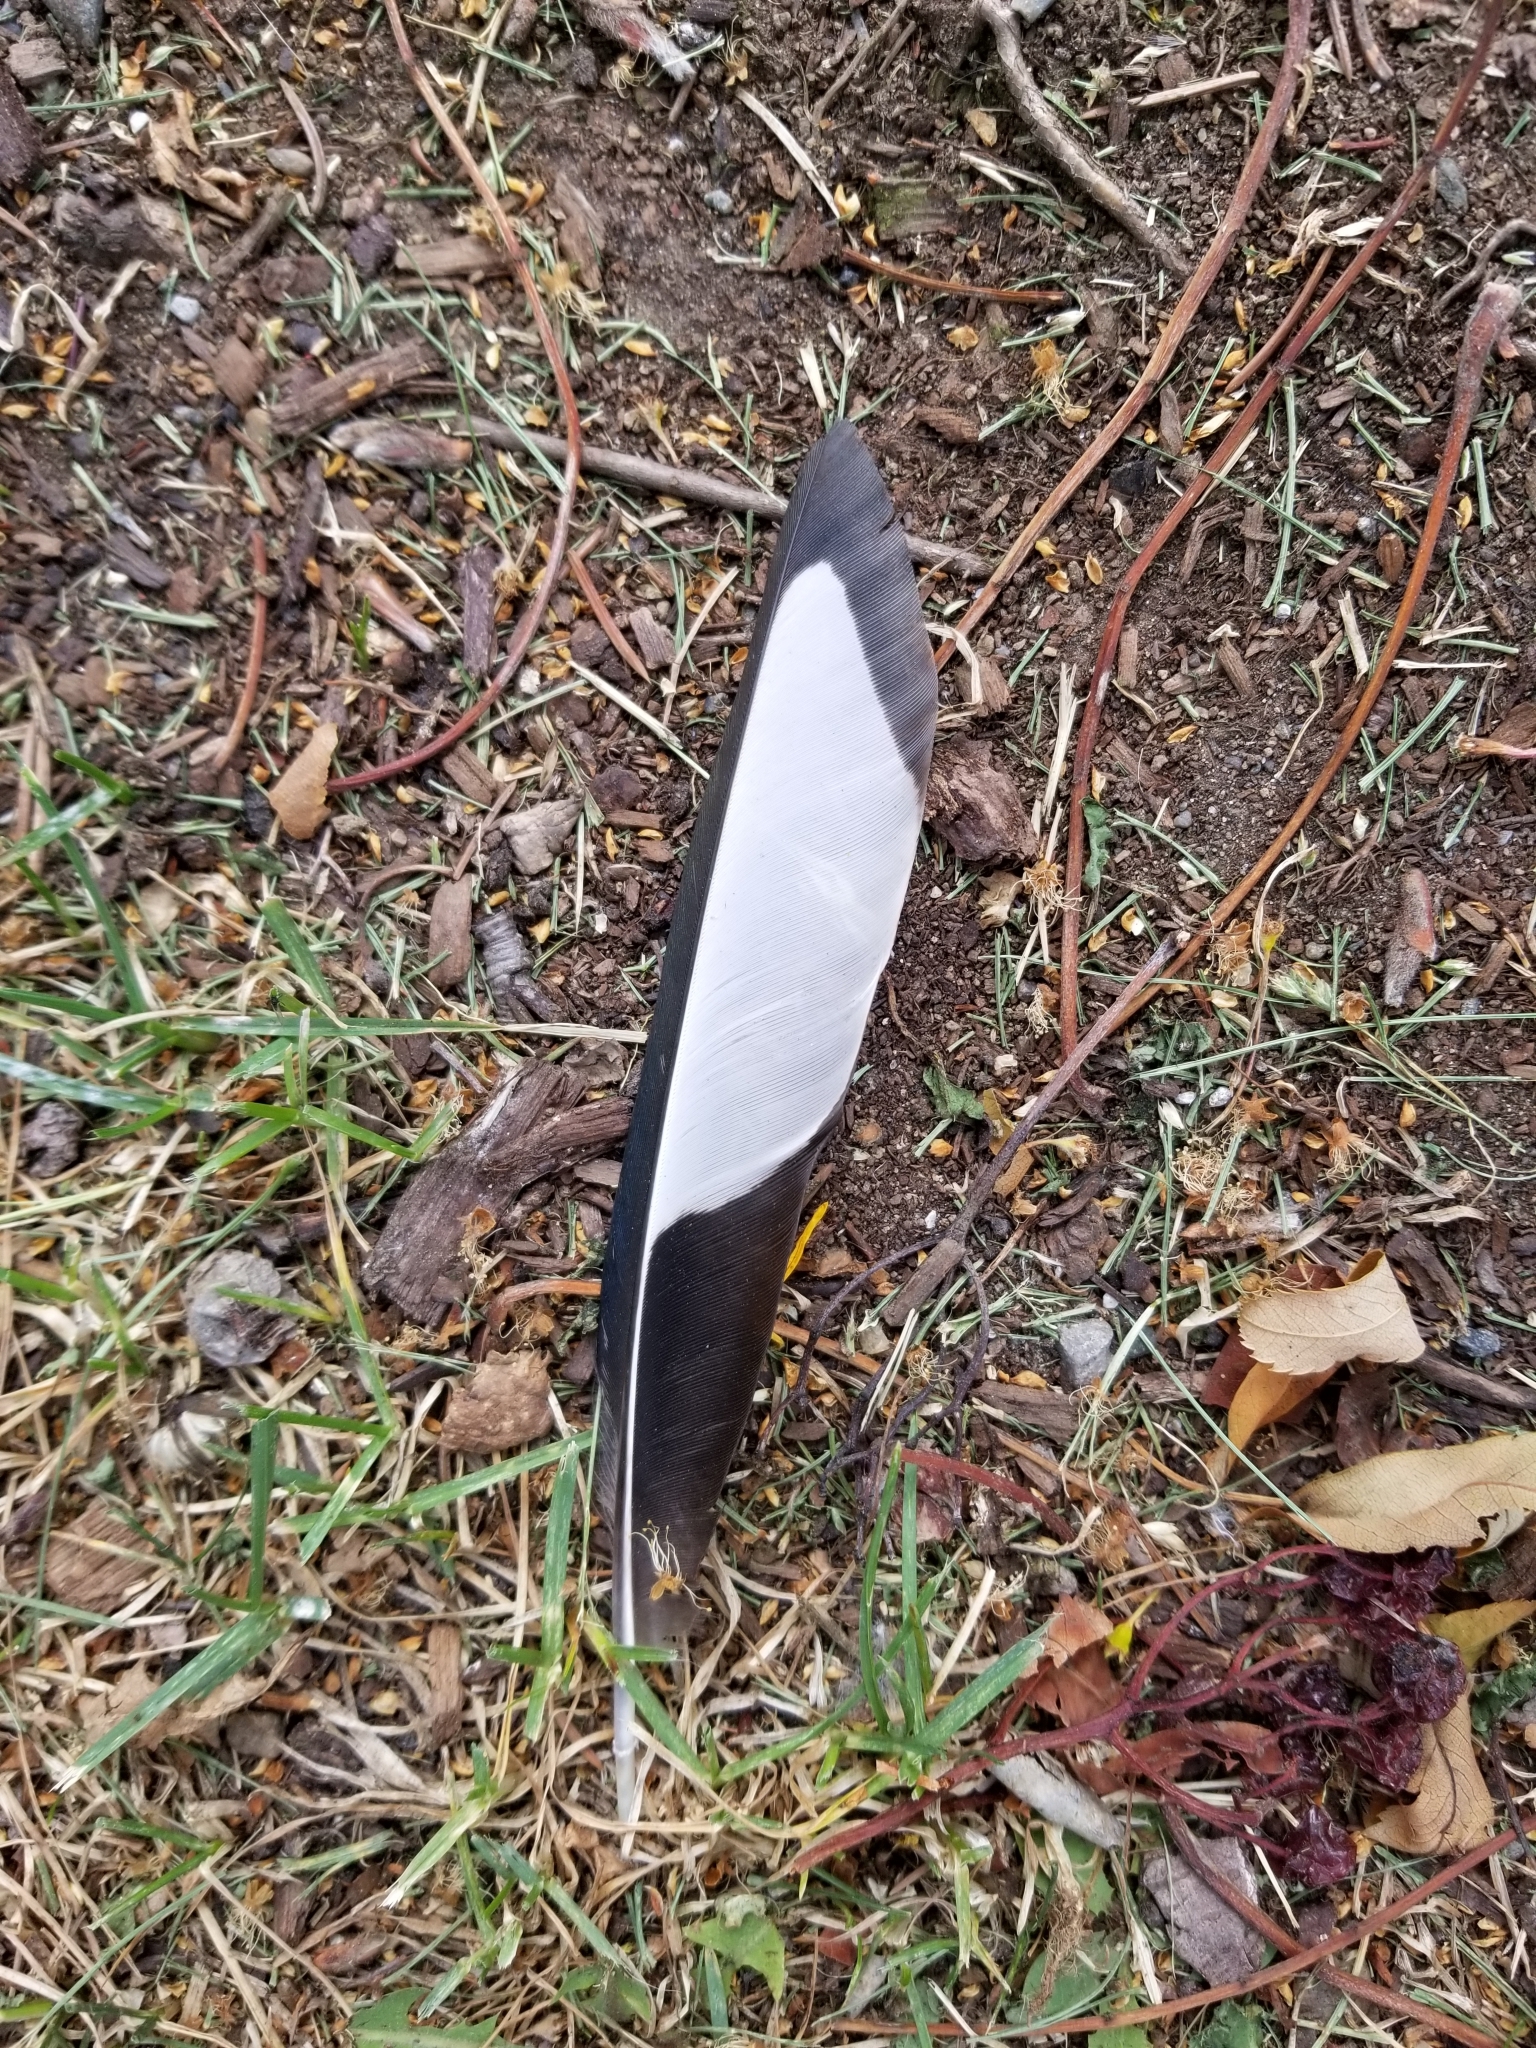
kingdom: Animalia
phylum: Chordata
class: Aves
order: Passeriformes
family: Corvidae
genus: Pica
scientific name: Pica hudsonia
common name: Black-billed magpie
